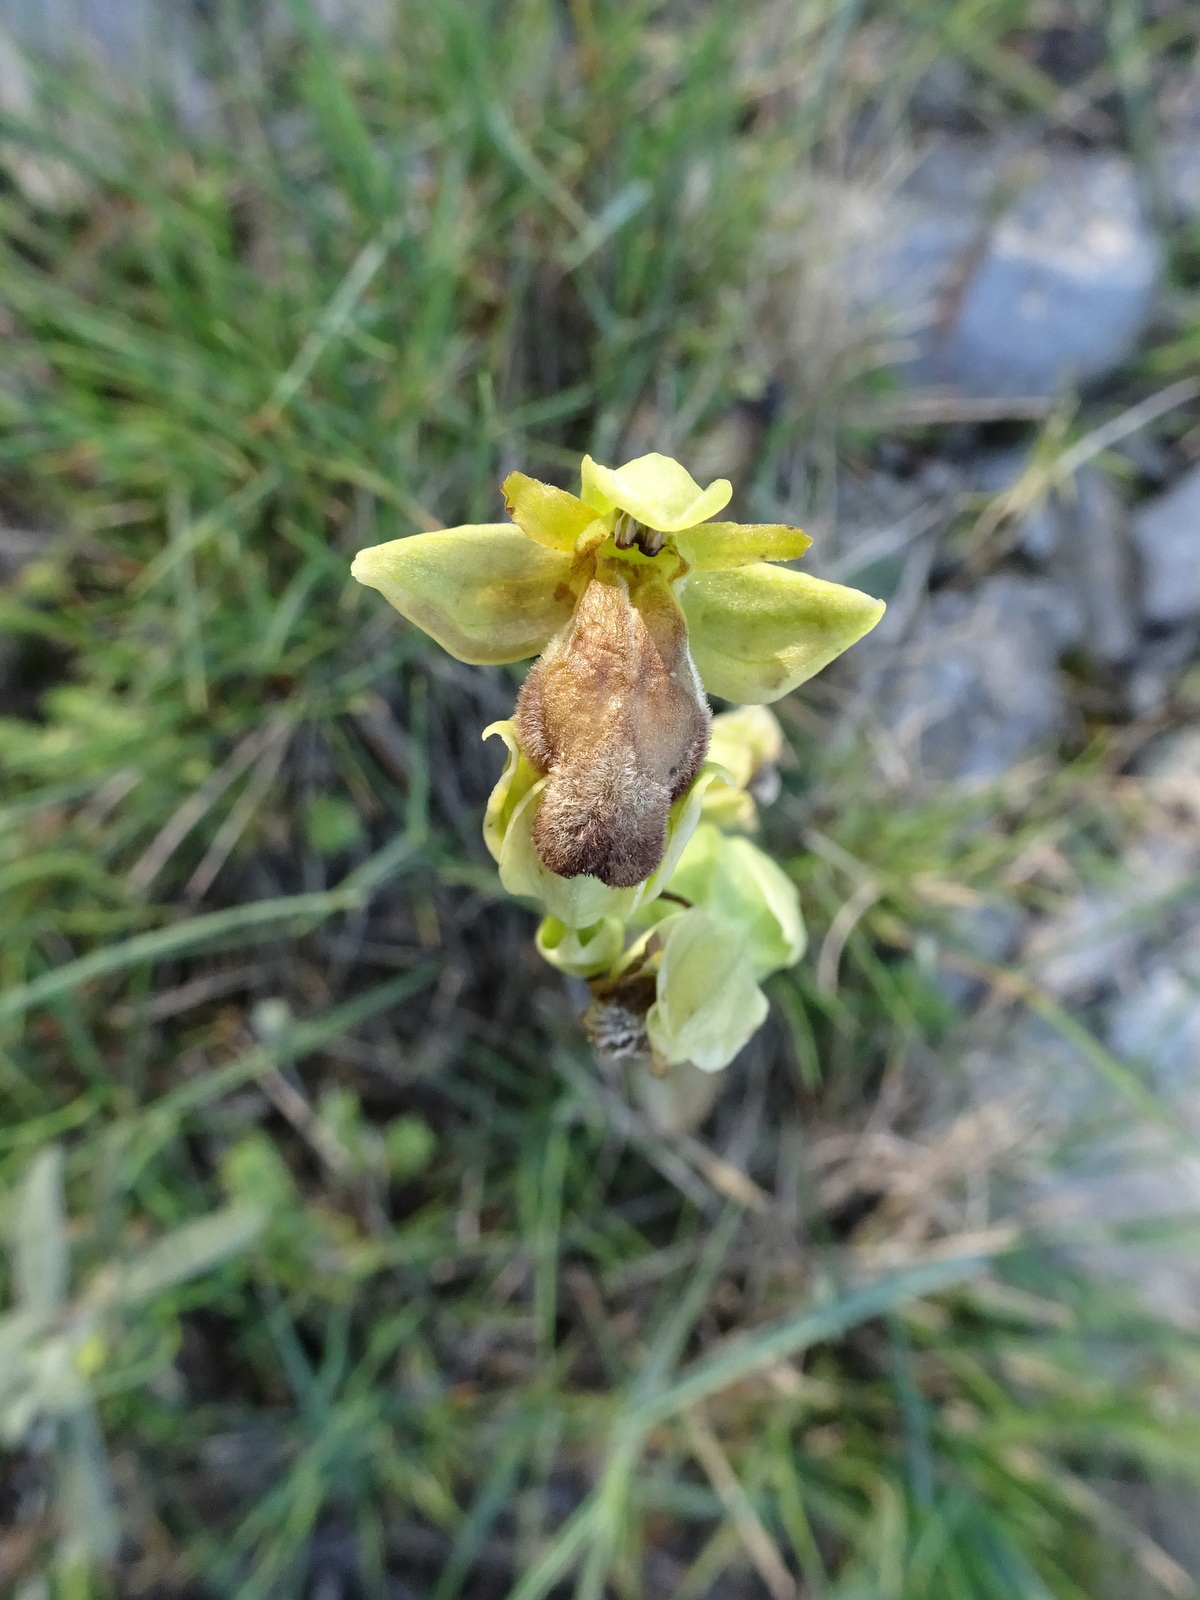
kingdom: Plantae
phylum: Tracheophyta
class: Liliopsida
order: Asparagales
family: Orchidaceae
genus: Ophrys
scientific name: Ophrys fusca
